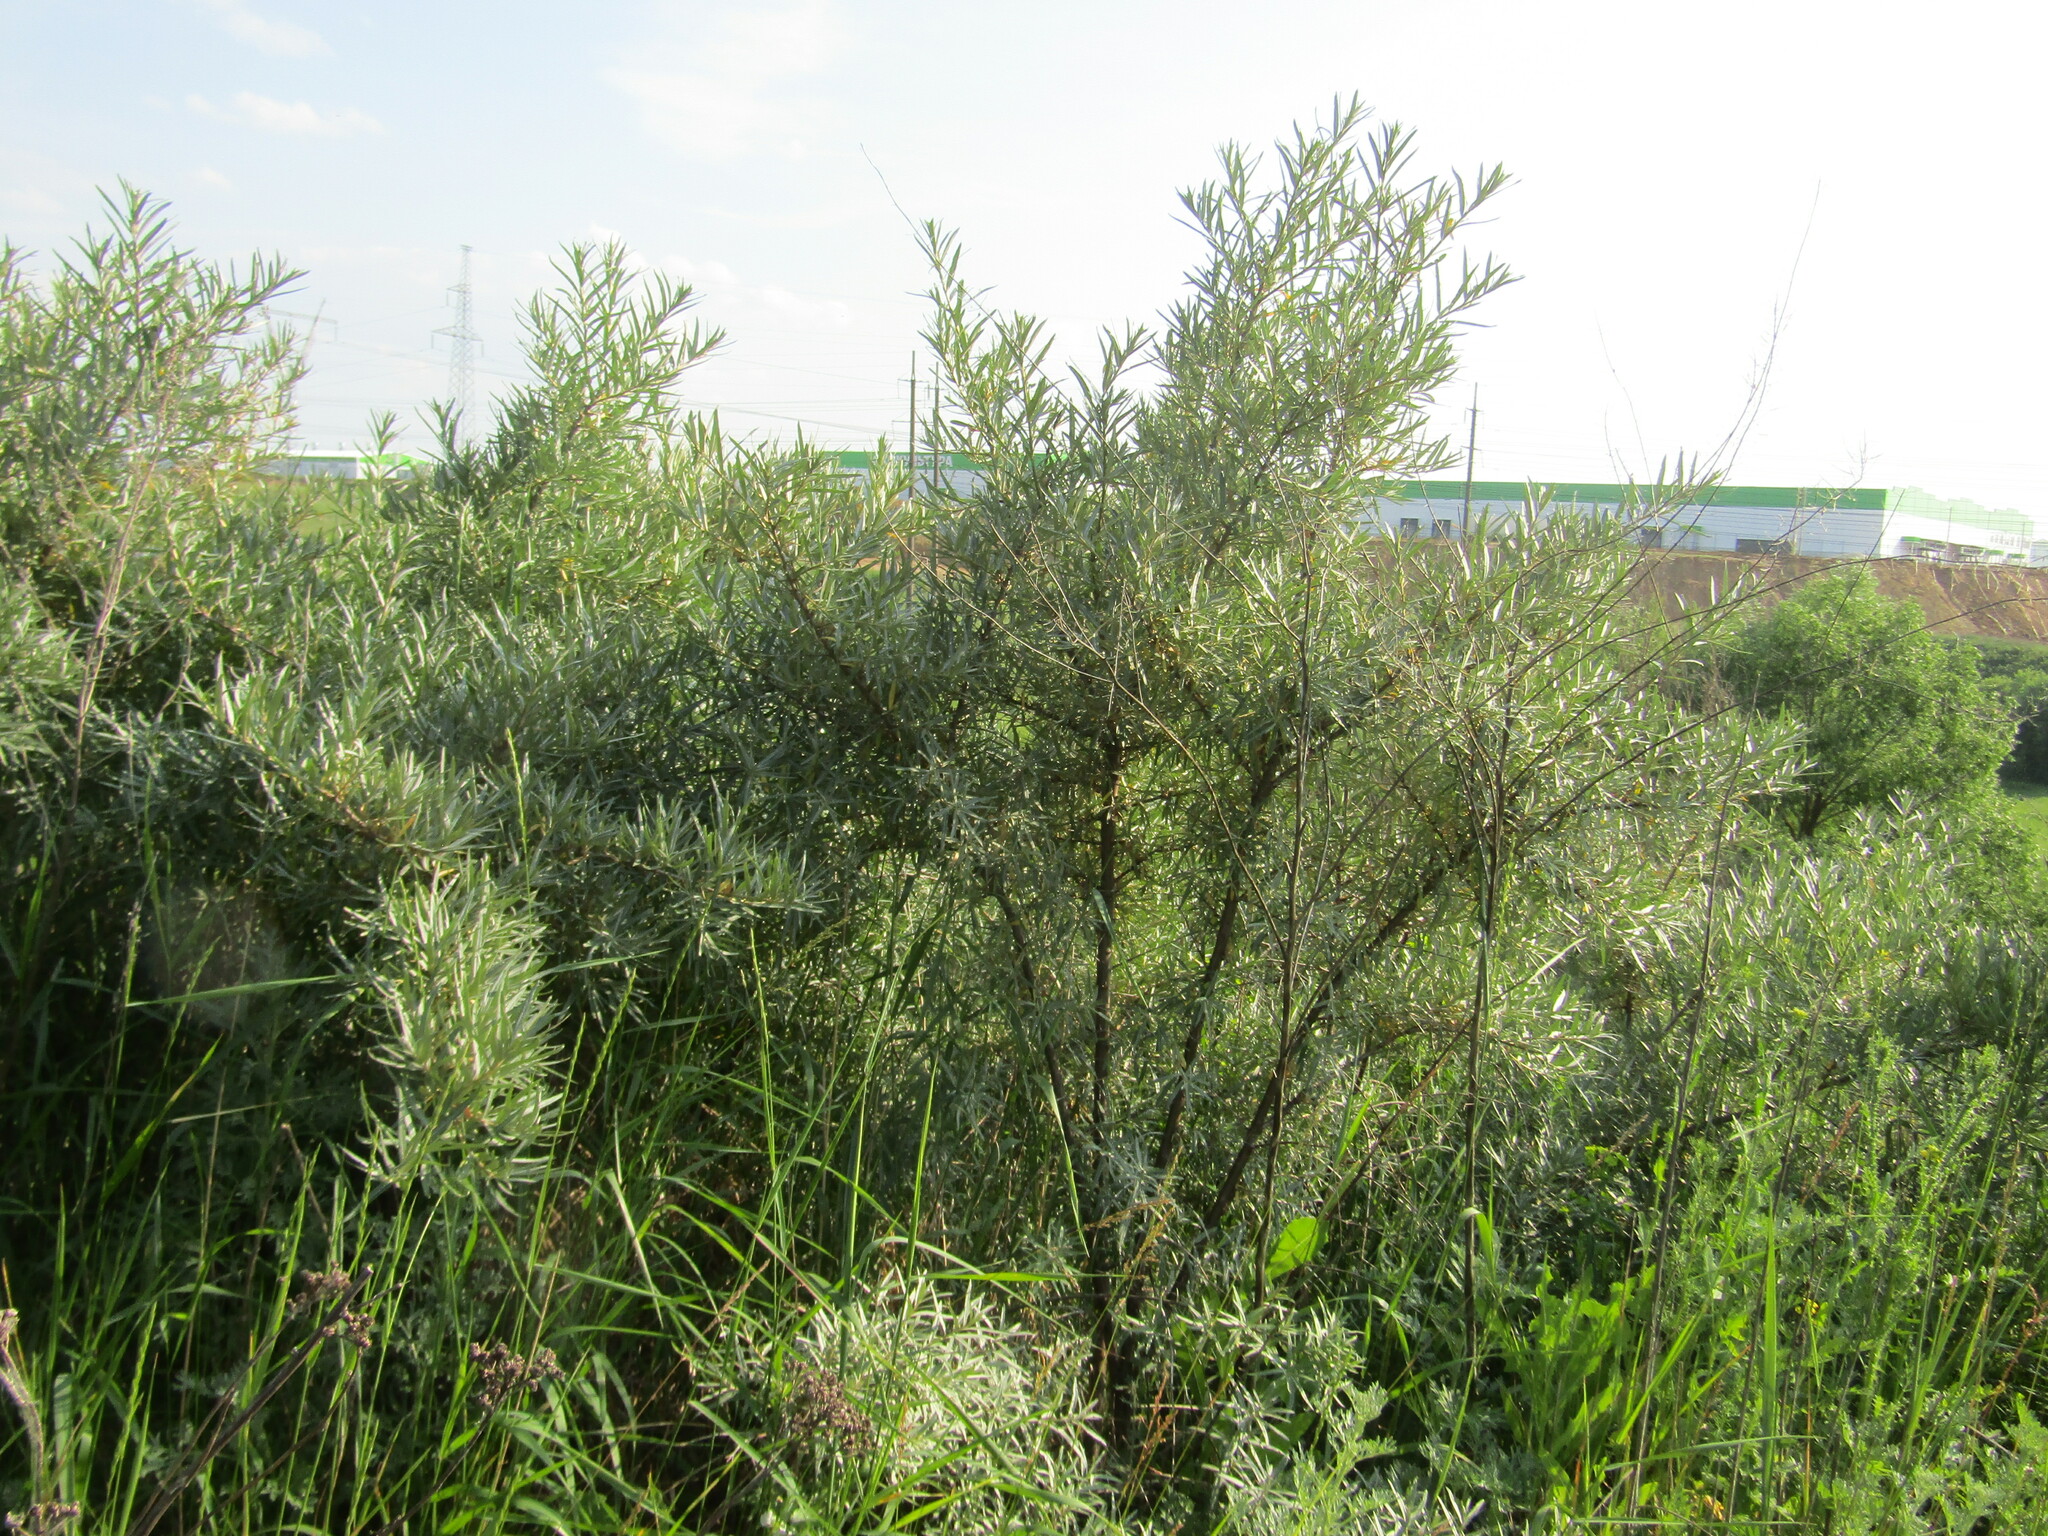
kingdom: Plantae
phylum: Tracheophyta
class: Magnoliopsida
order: Rosales
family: Elaeagnaceae
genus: Hippophae
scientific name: Hippophae rhamnoides
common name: Sea-buckthorn
